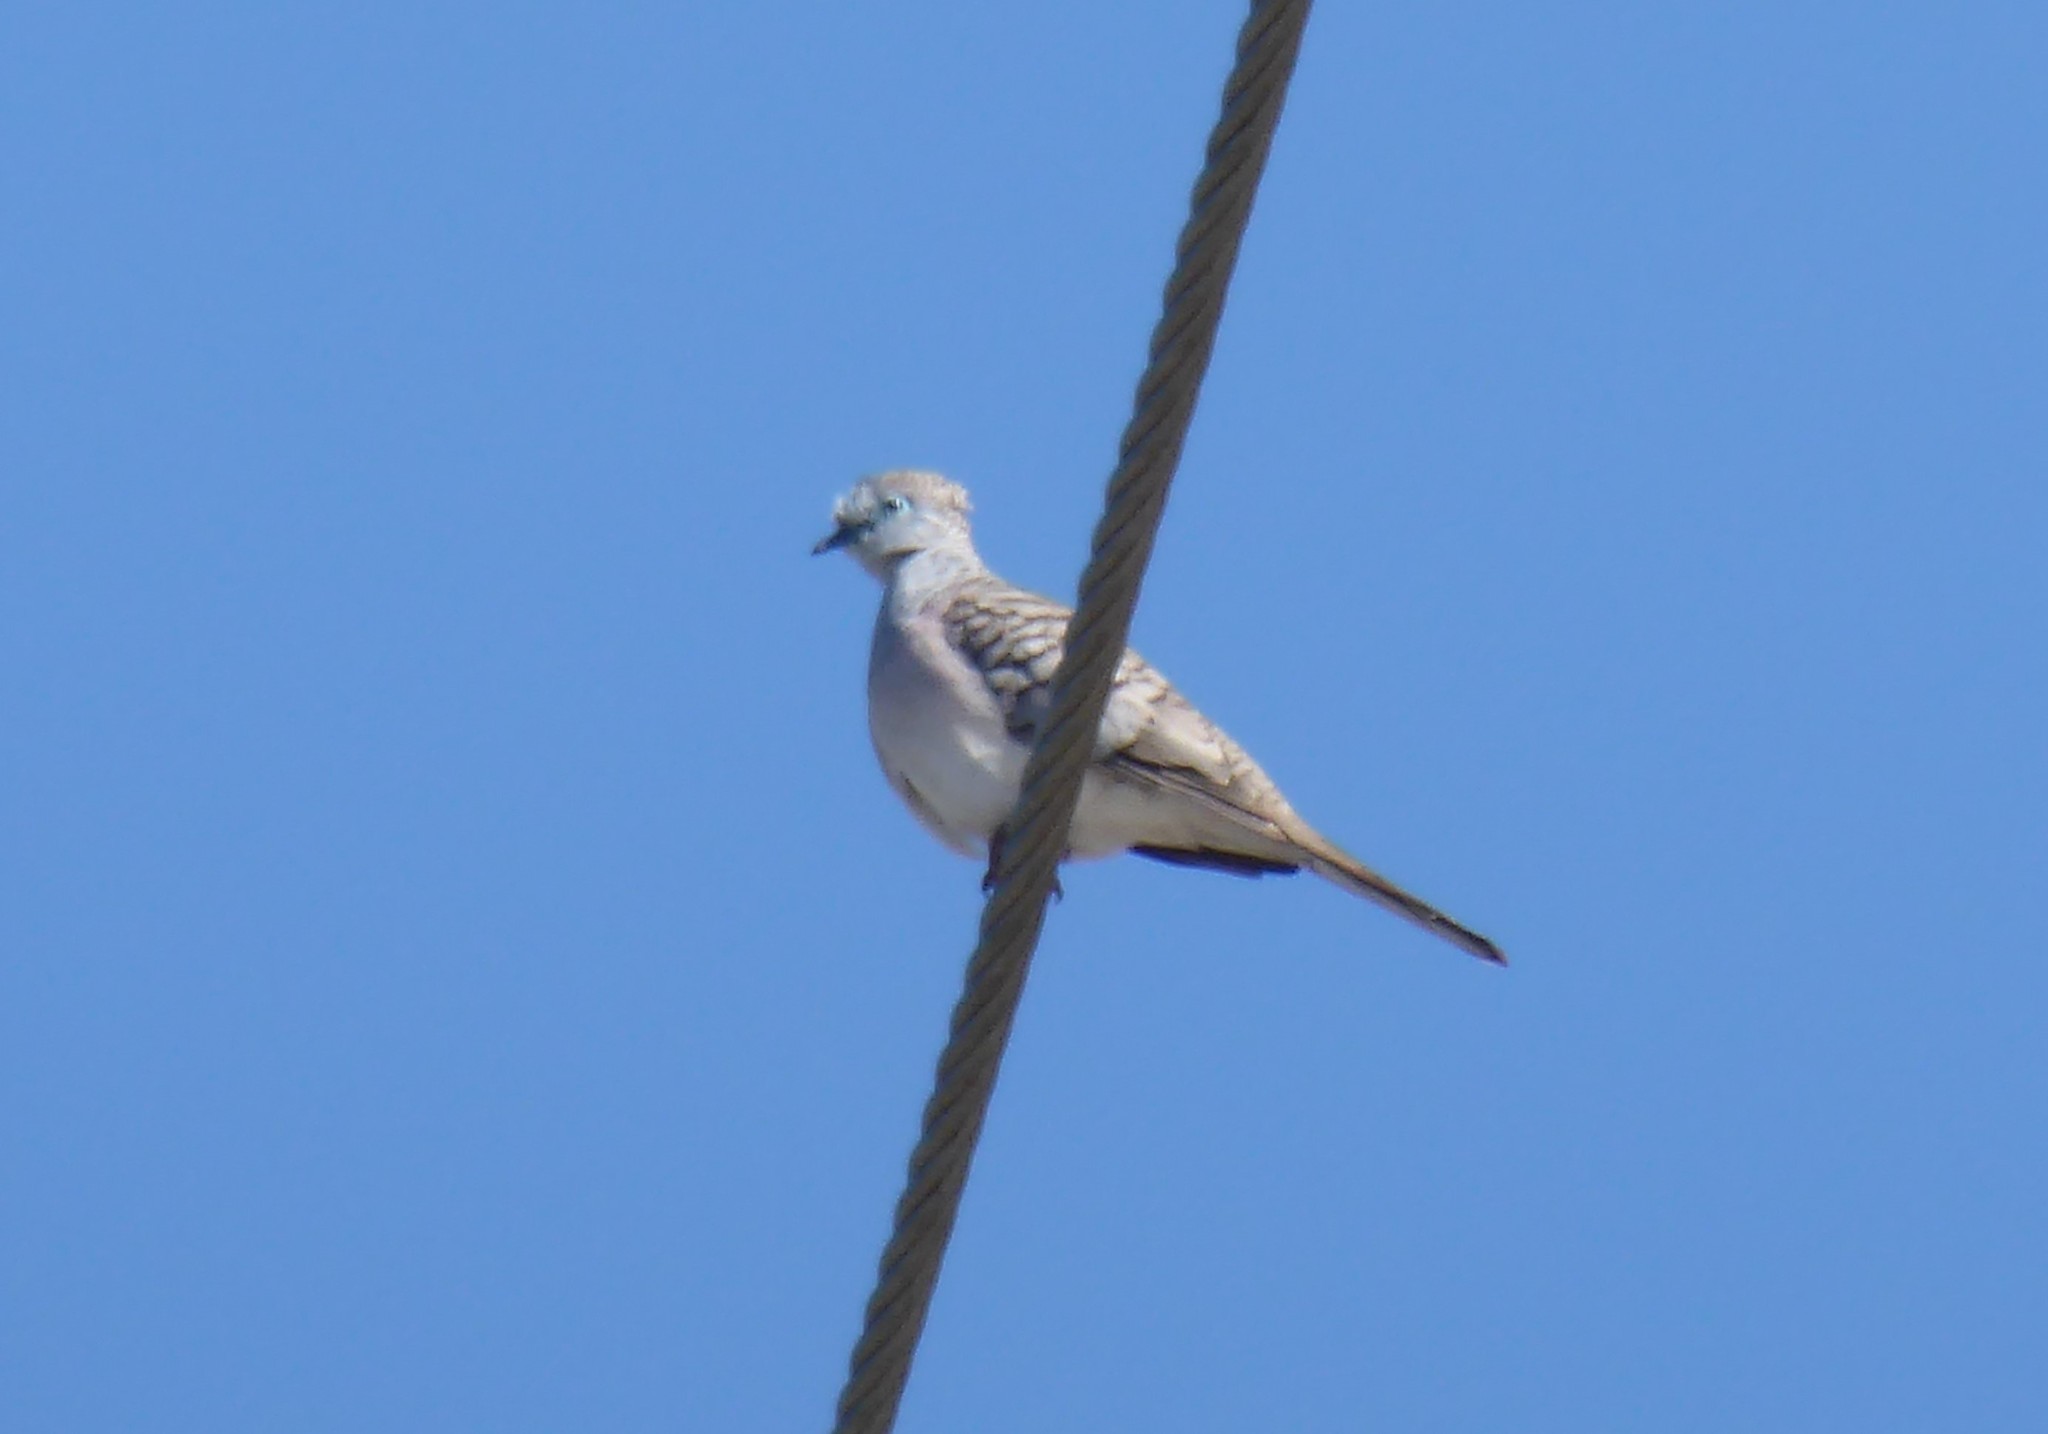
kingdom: Animalia
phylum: Chordata
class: Aves
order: Columbiformes
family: Columbidae
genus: Geopelia
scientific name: Geopelia placida
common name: Peaceful dove
